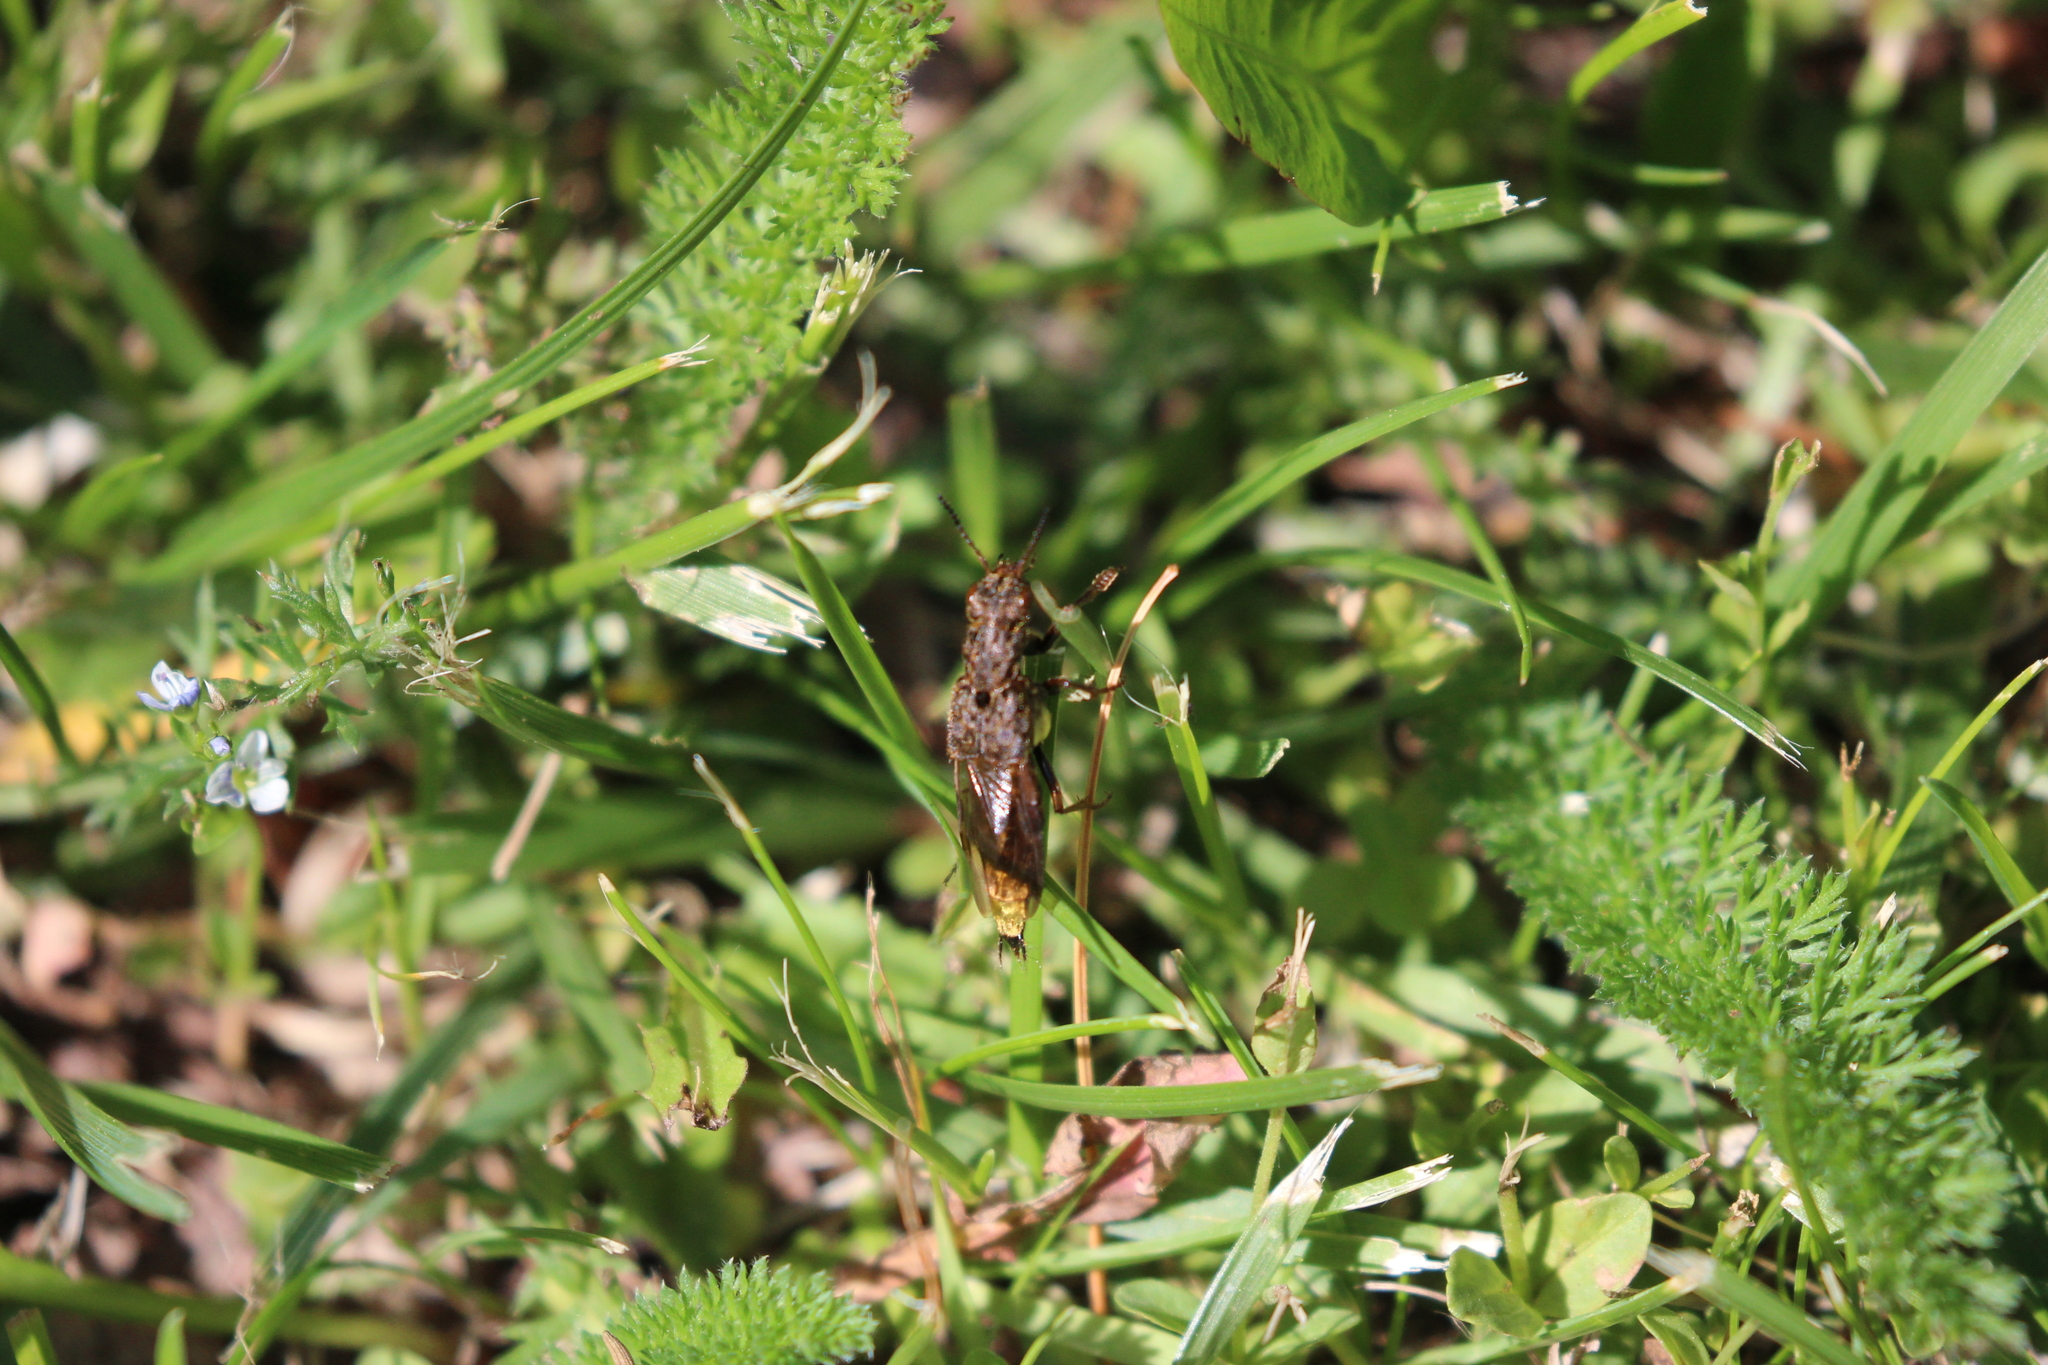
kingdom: Animalia
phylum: Arthropoda
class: Insecta
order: Coleoptera
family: Staphylinidae
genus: Ontholestes
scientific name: Ontholestes cingulatus
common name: Gold-and-brown rove beetle
